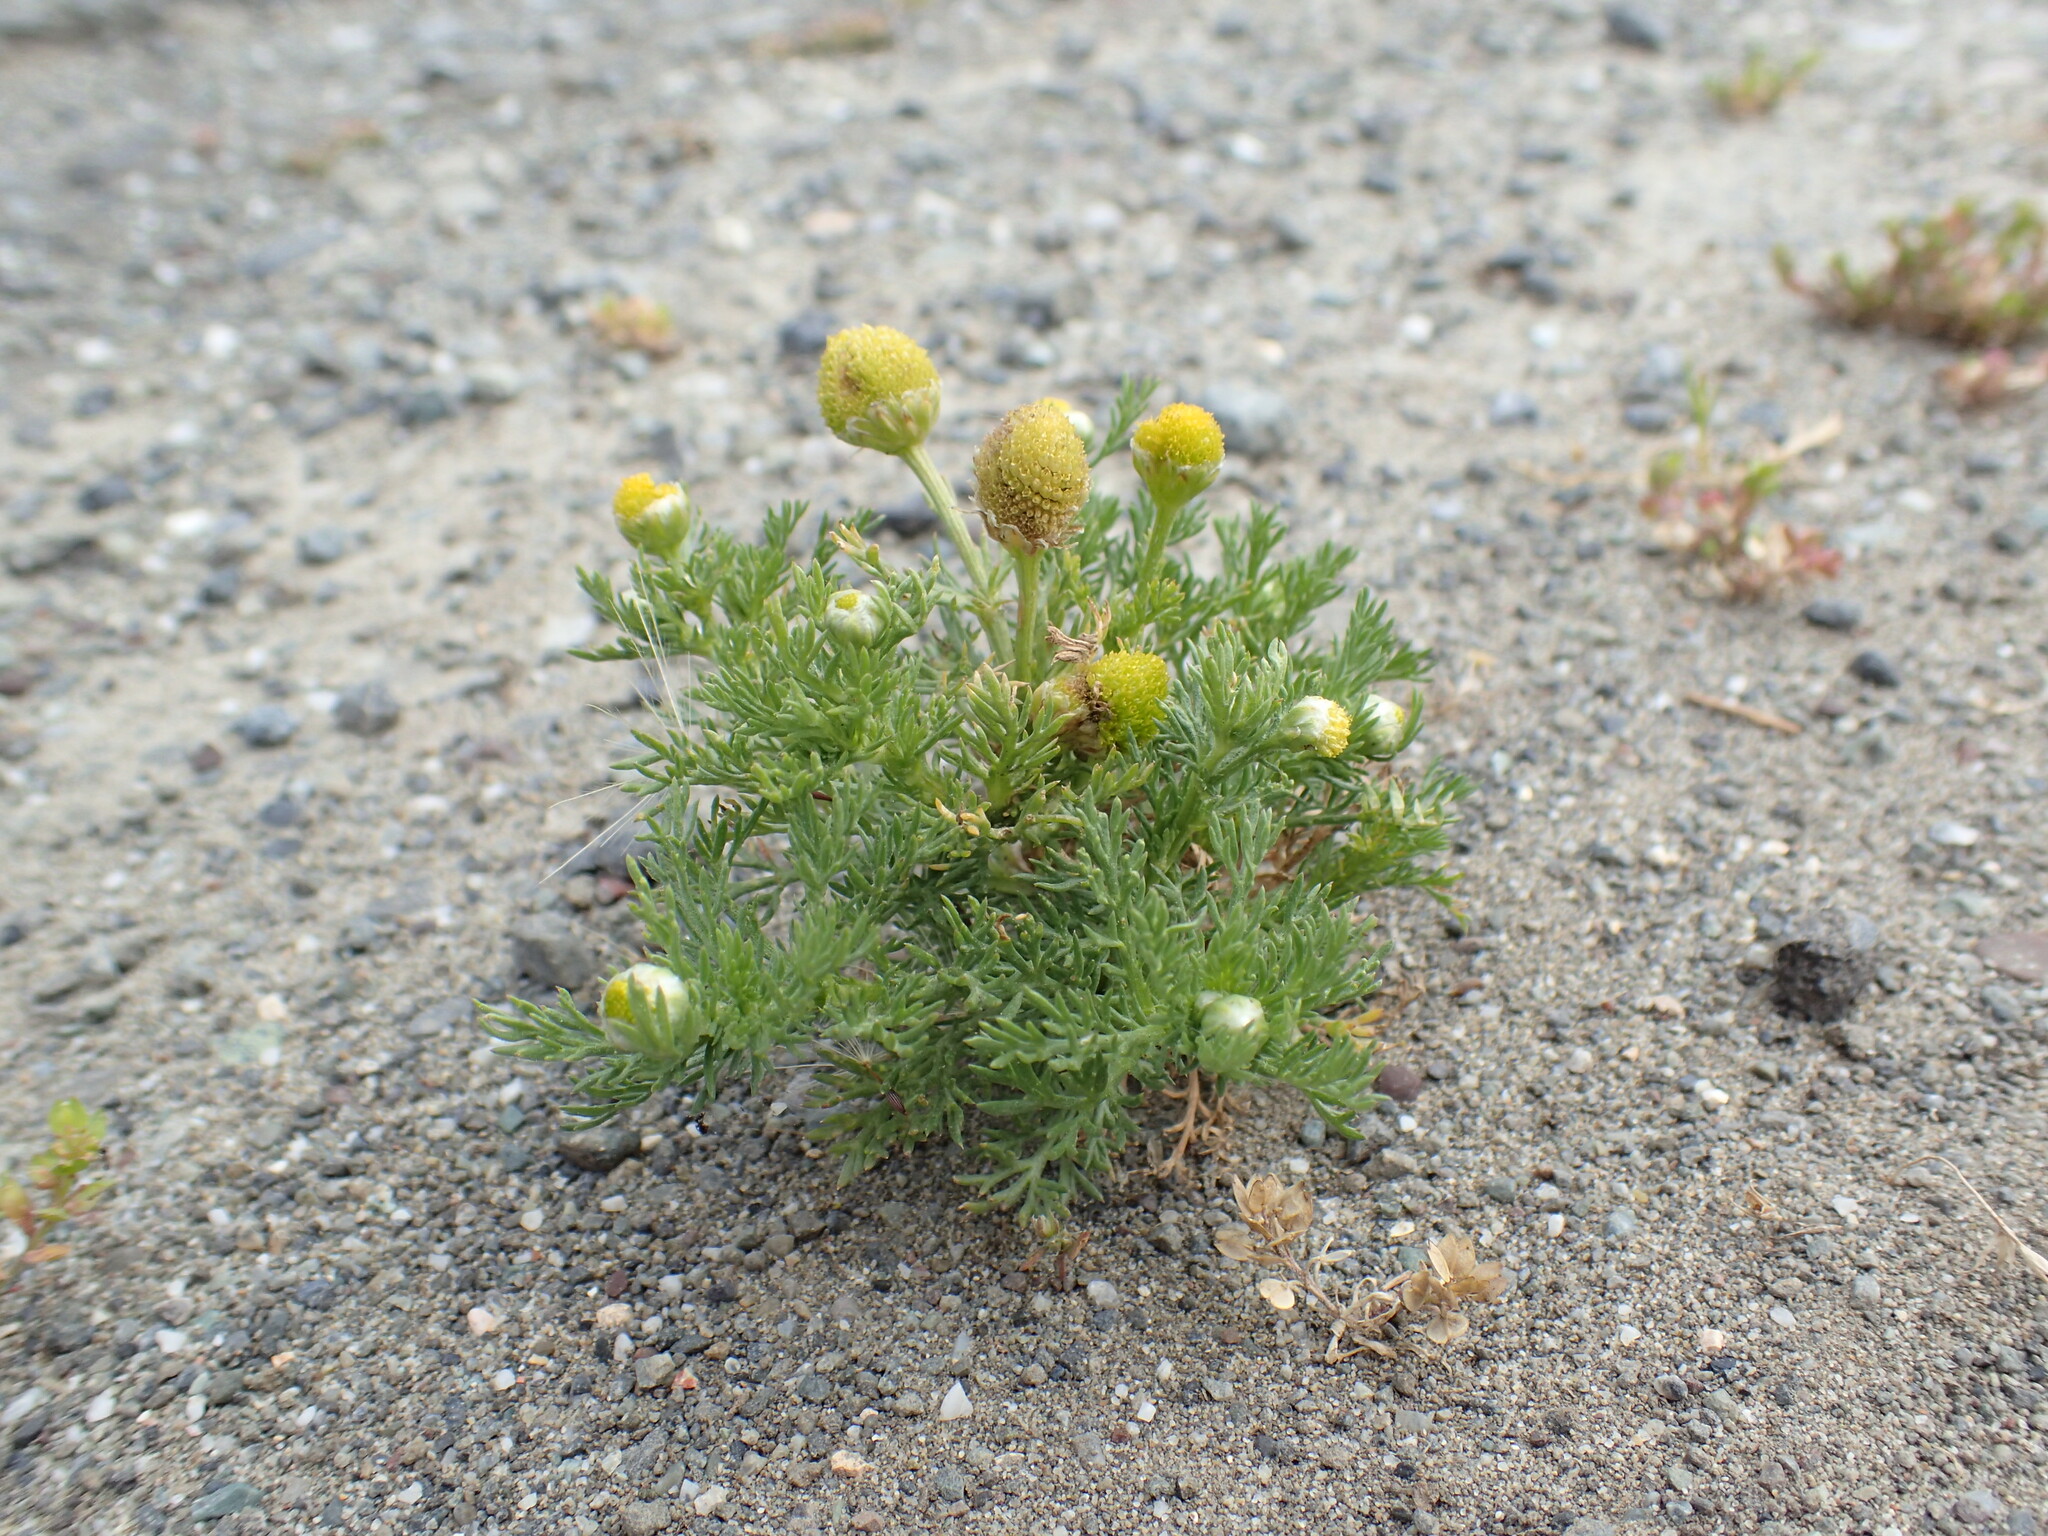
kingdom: Plantae
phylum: Tracheophyta
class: Magnoliopsida
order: Asterales
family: Asteraceae
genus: Matricaria
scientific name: Matricaria discoidea
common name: Disc mayweed
